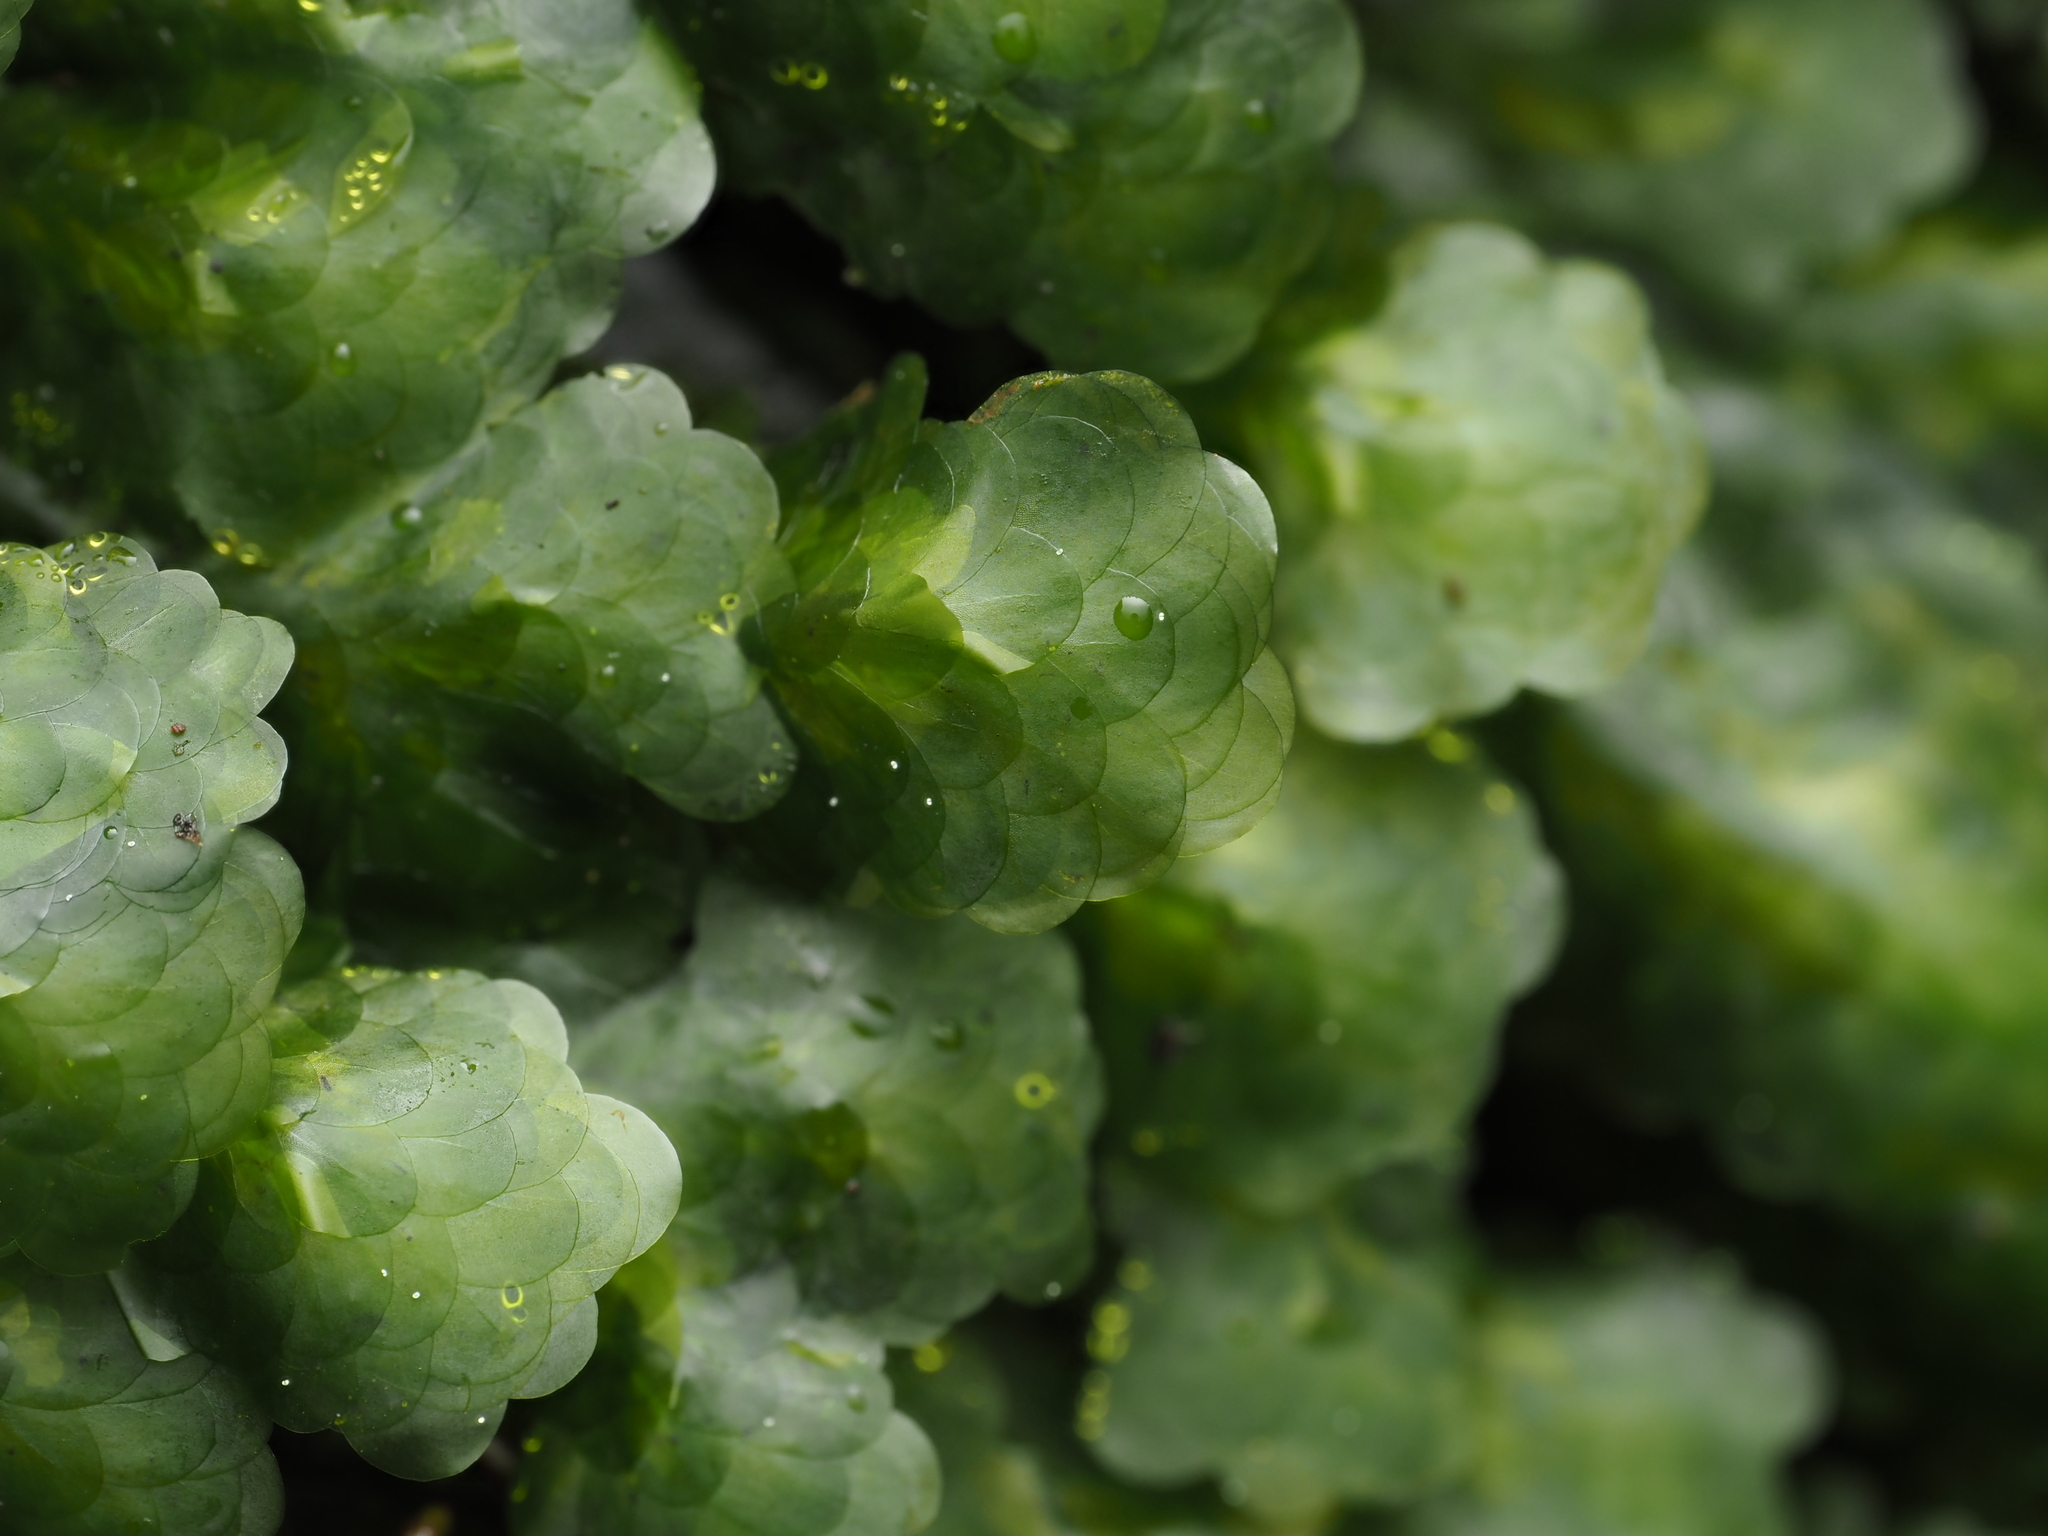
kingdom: Plantae
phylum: Bryophyta
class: Bryopsida
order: Hookeriales
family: Daltoniaceae
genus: Distichophyllum
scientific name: Distichophyllum microcarpon
